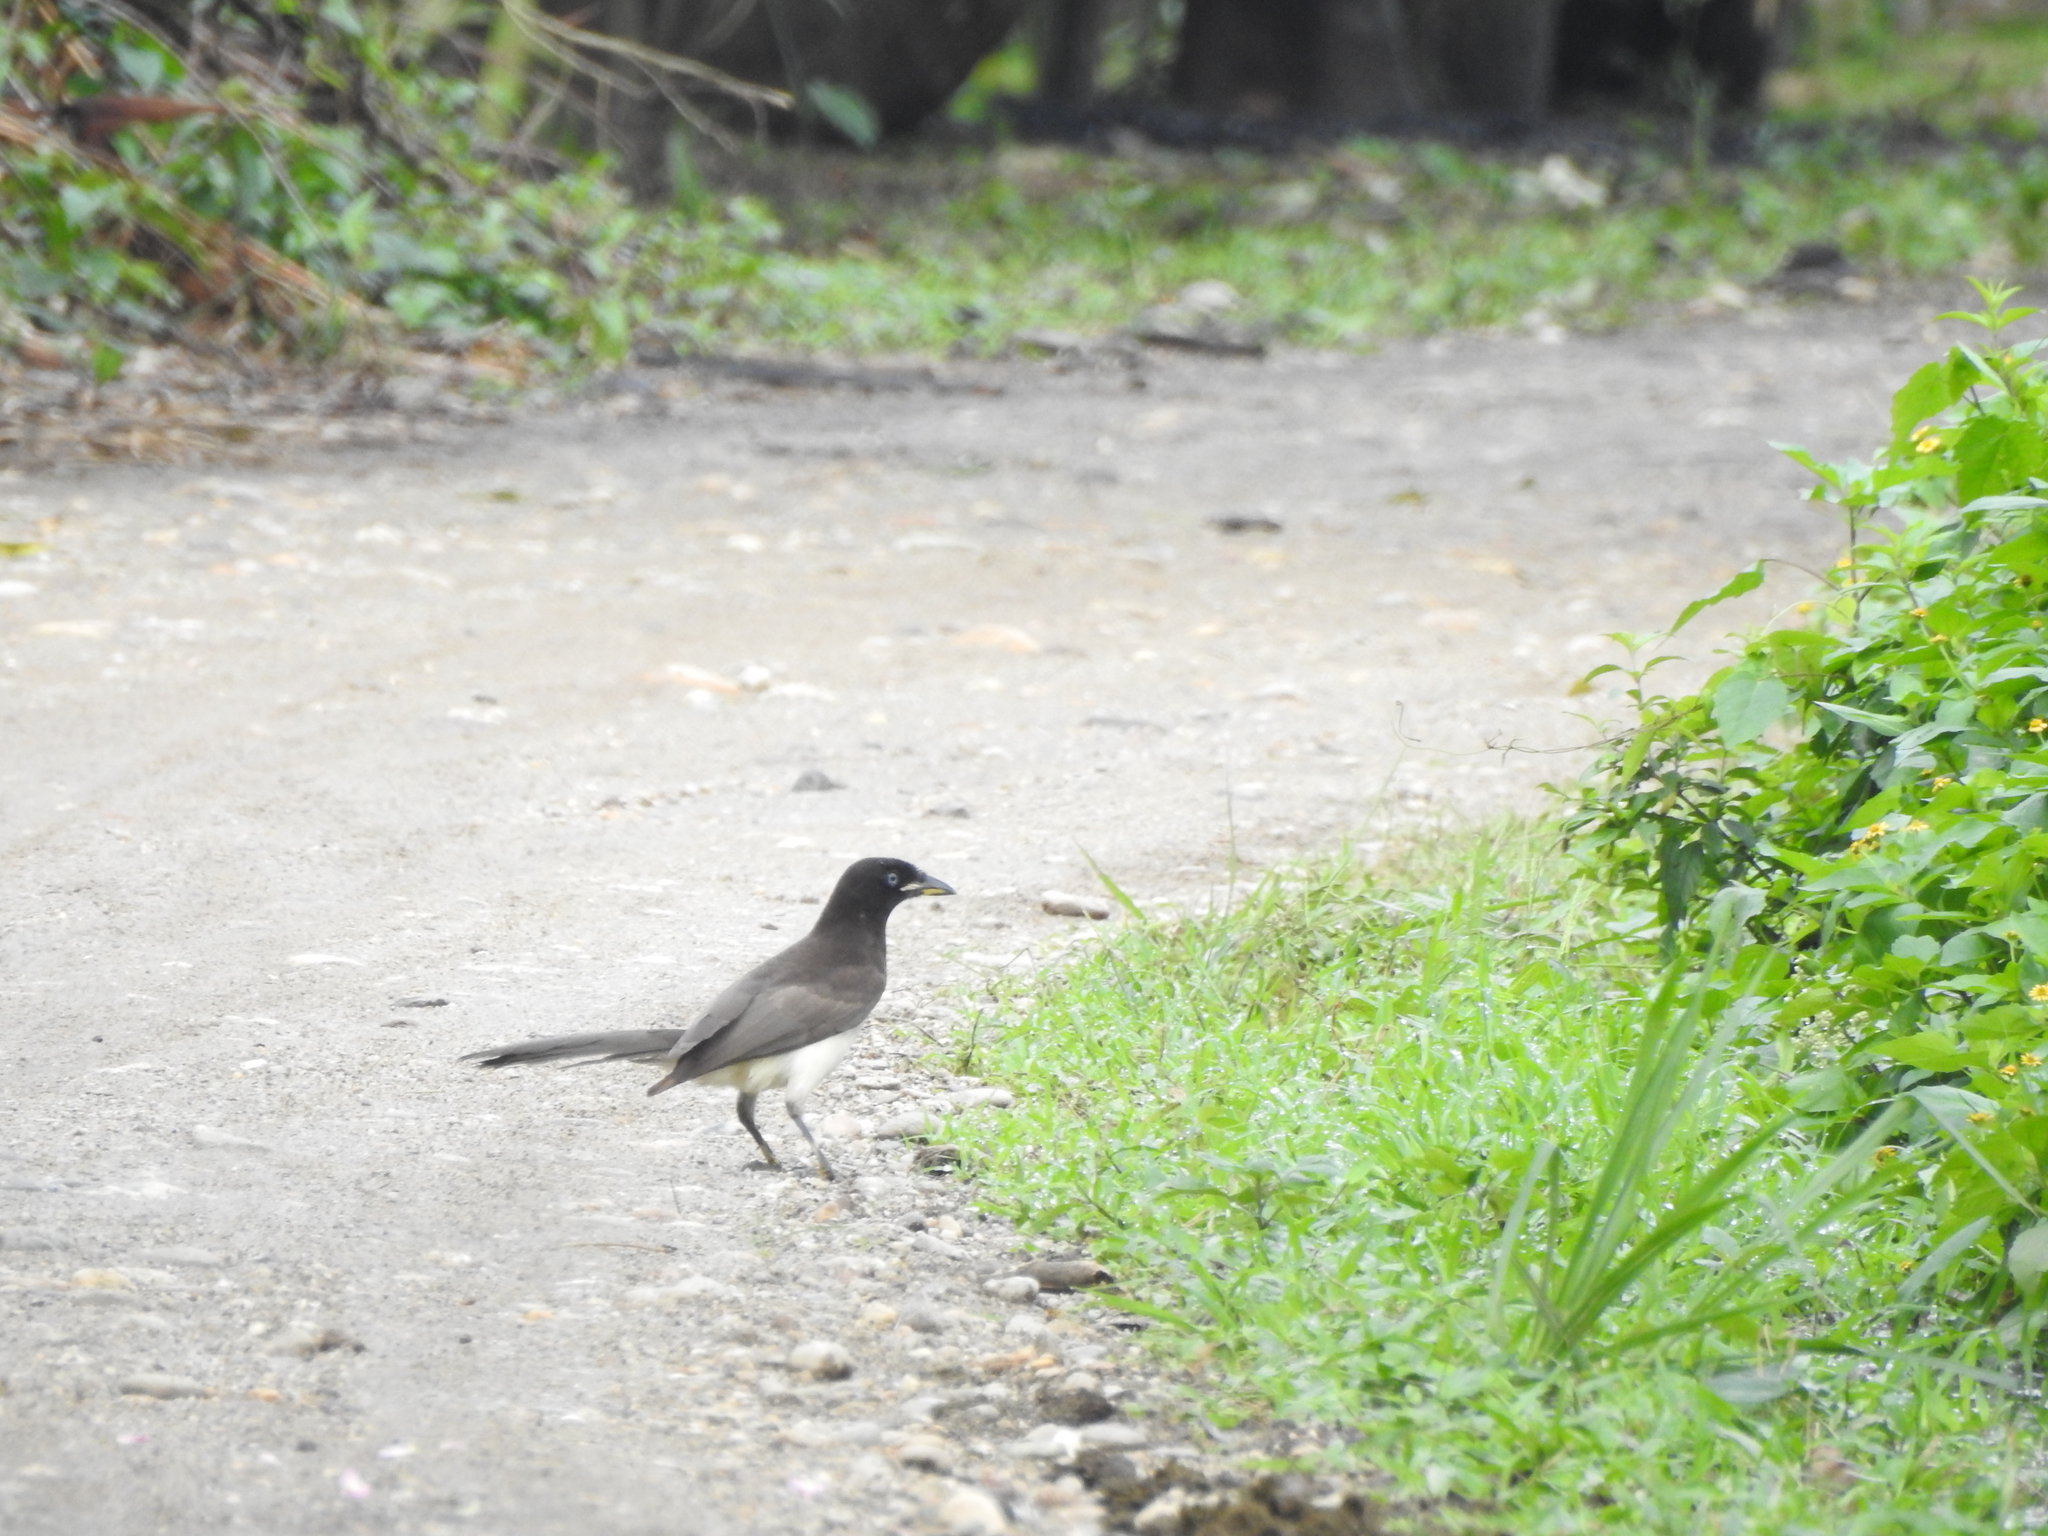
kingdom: Animalia
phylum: Chordata
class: Aves
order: Passeriformes
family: Corvidae
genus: Psilorhinus
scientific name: Psilorhinus morio
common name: Brown jay
